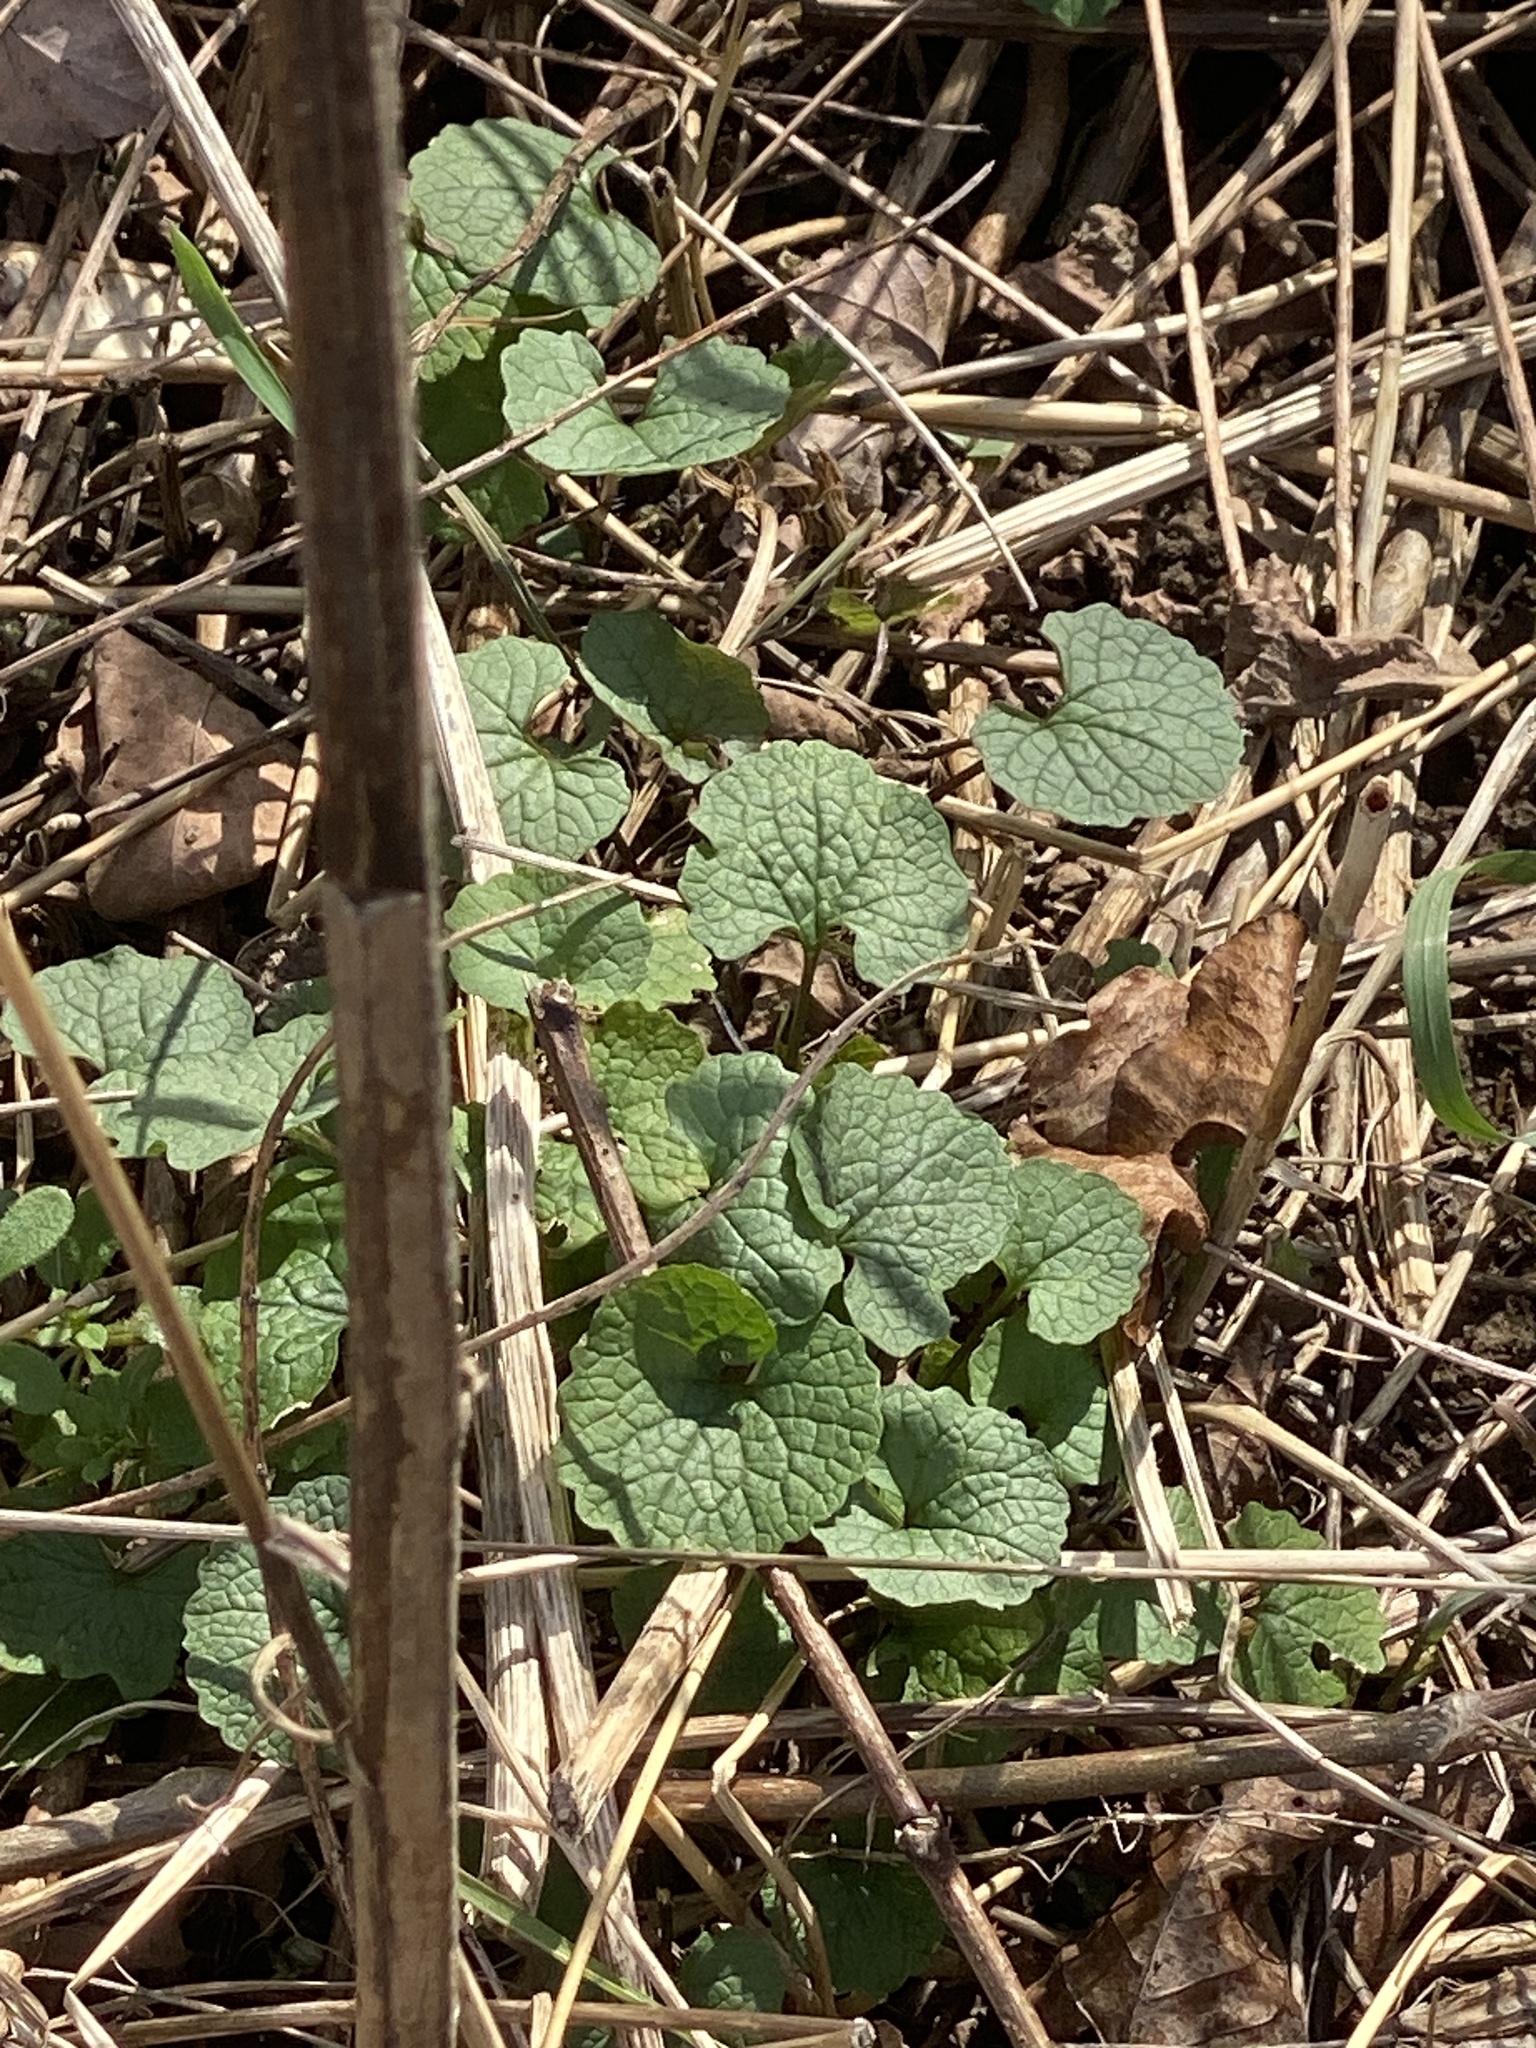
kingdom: Plantae
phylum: Tracheophyta
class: Magnoliopsida
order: Brassicales
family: Brassicaceae
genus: Alliaria
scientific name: Alliaria petiolata
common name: Garlic mustard
